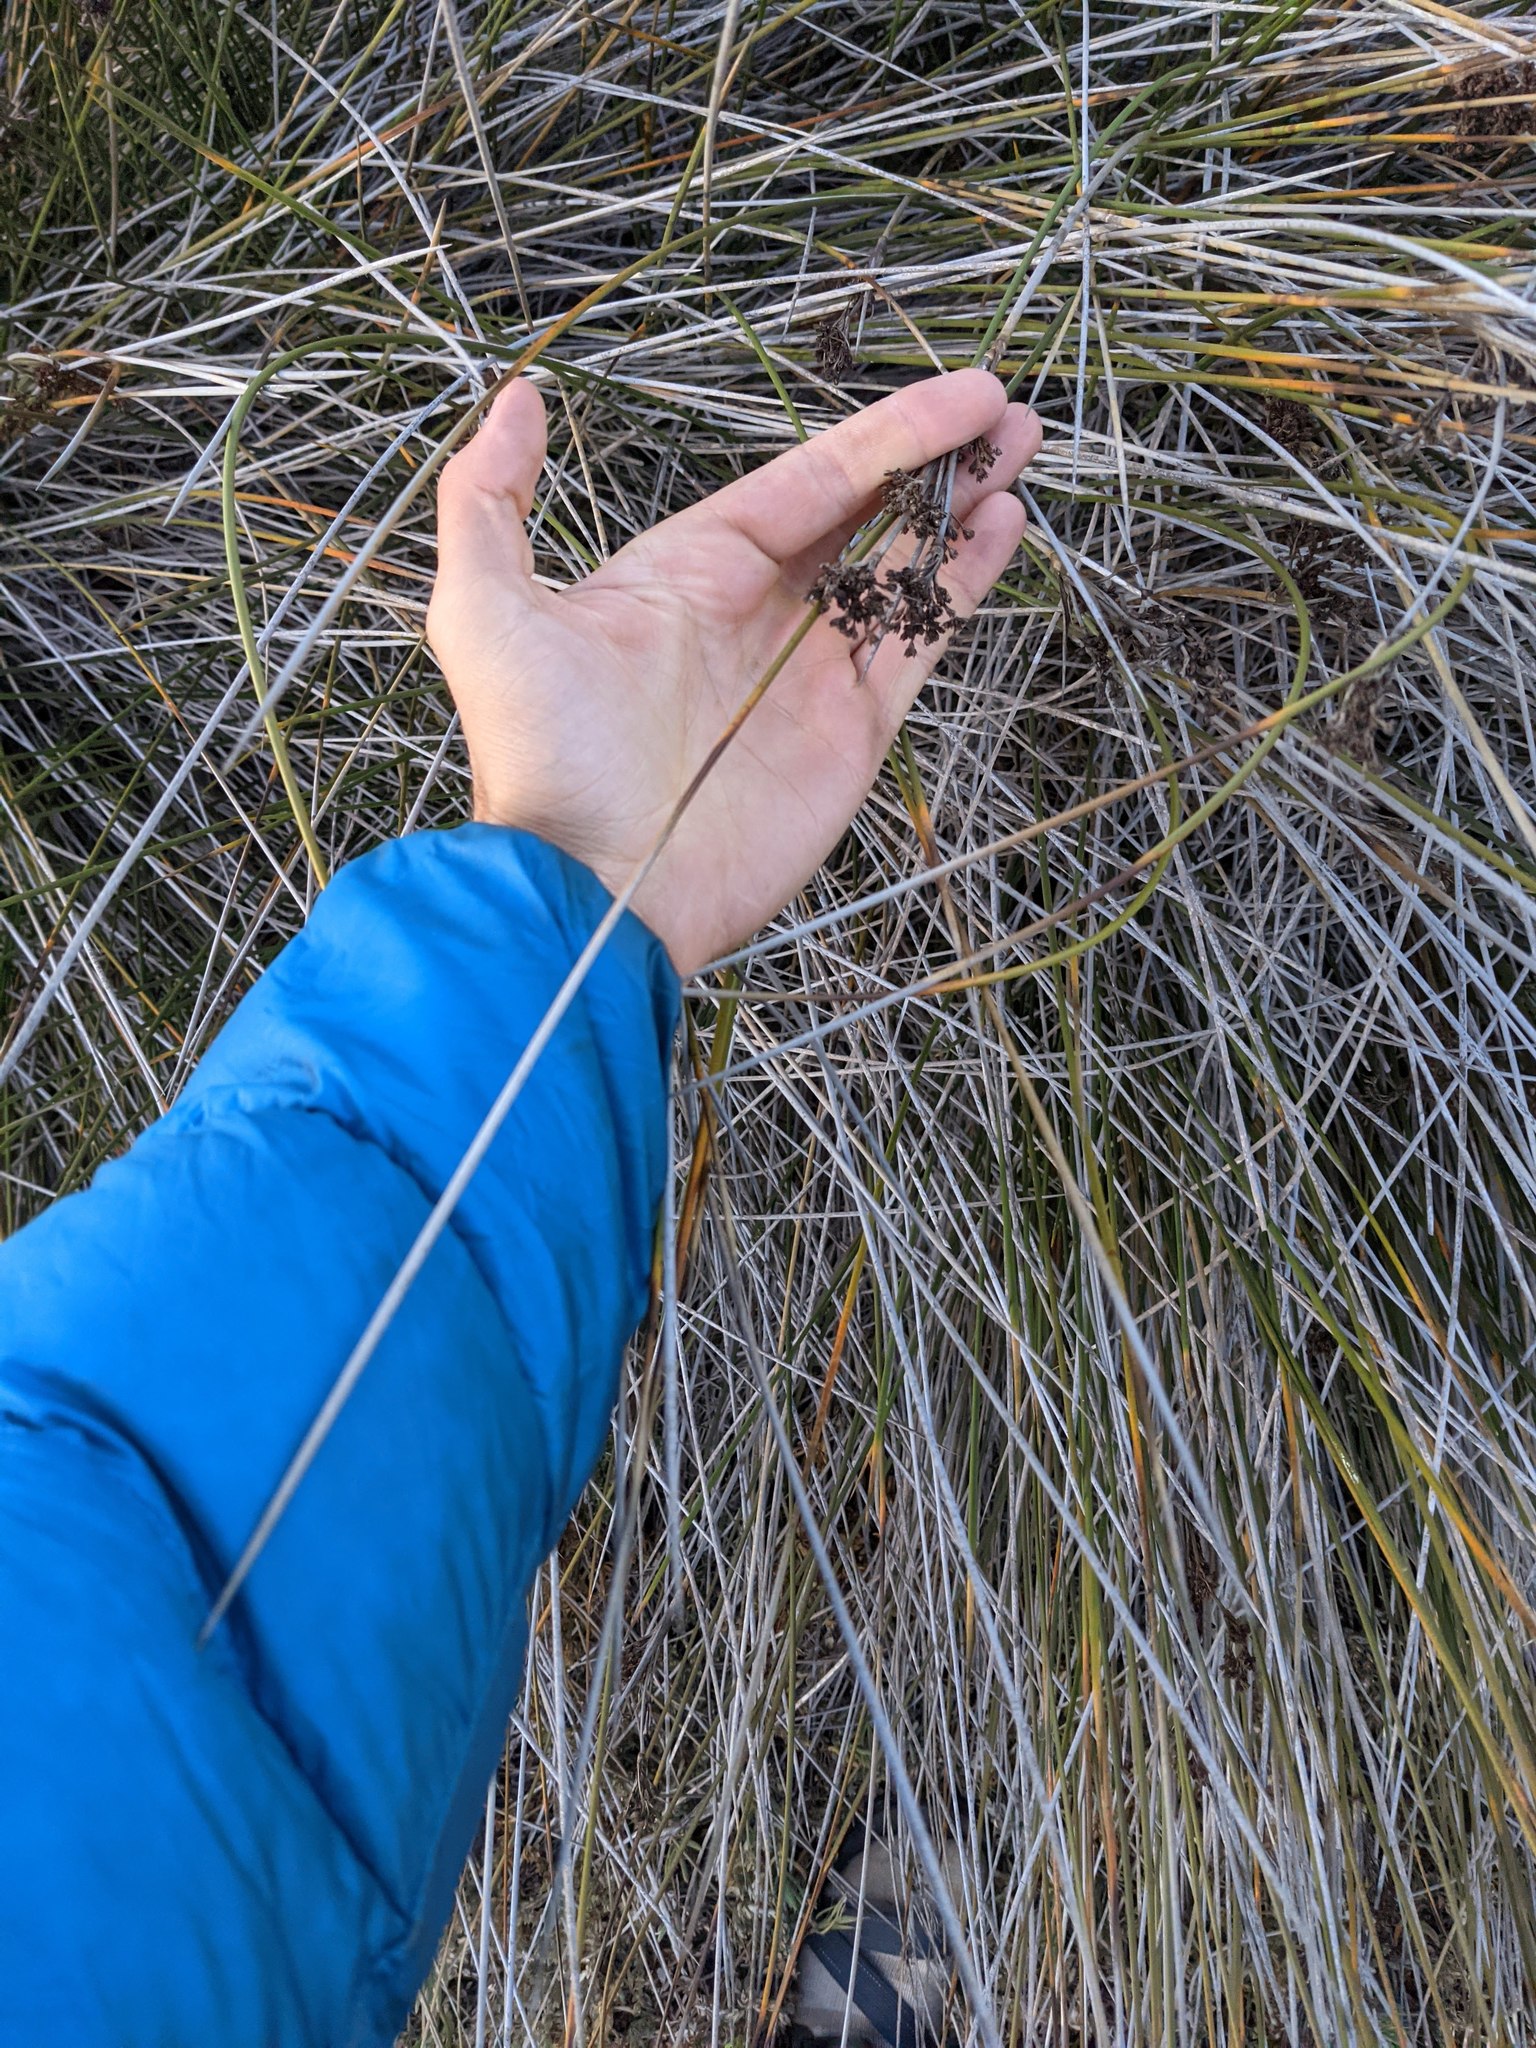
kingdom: Plantae
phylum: Tracheophyta
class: Liliopsida
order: Poales
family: Juncaceae
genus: Juncus
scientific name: Juncus acutus
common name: Sharp rush
